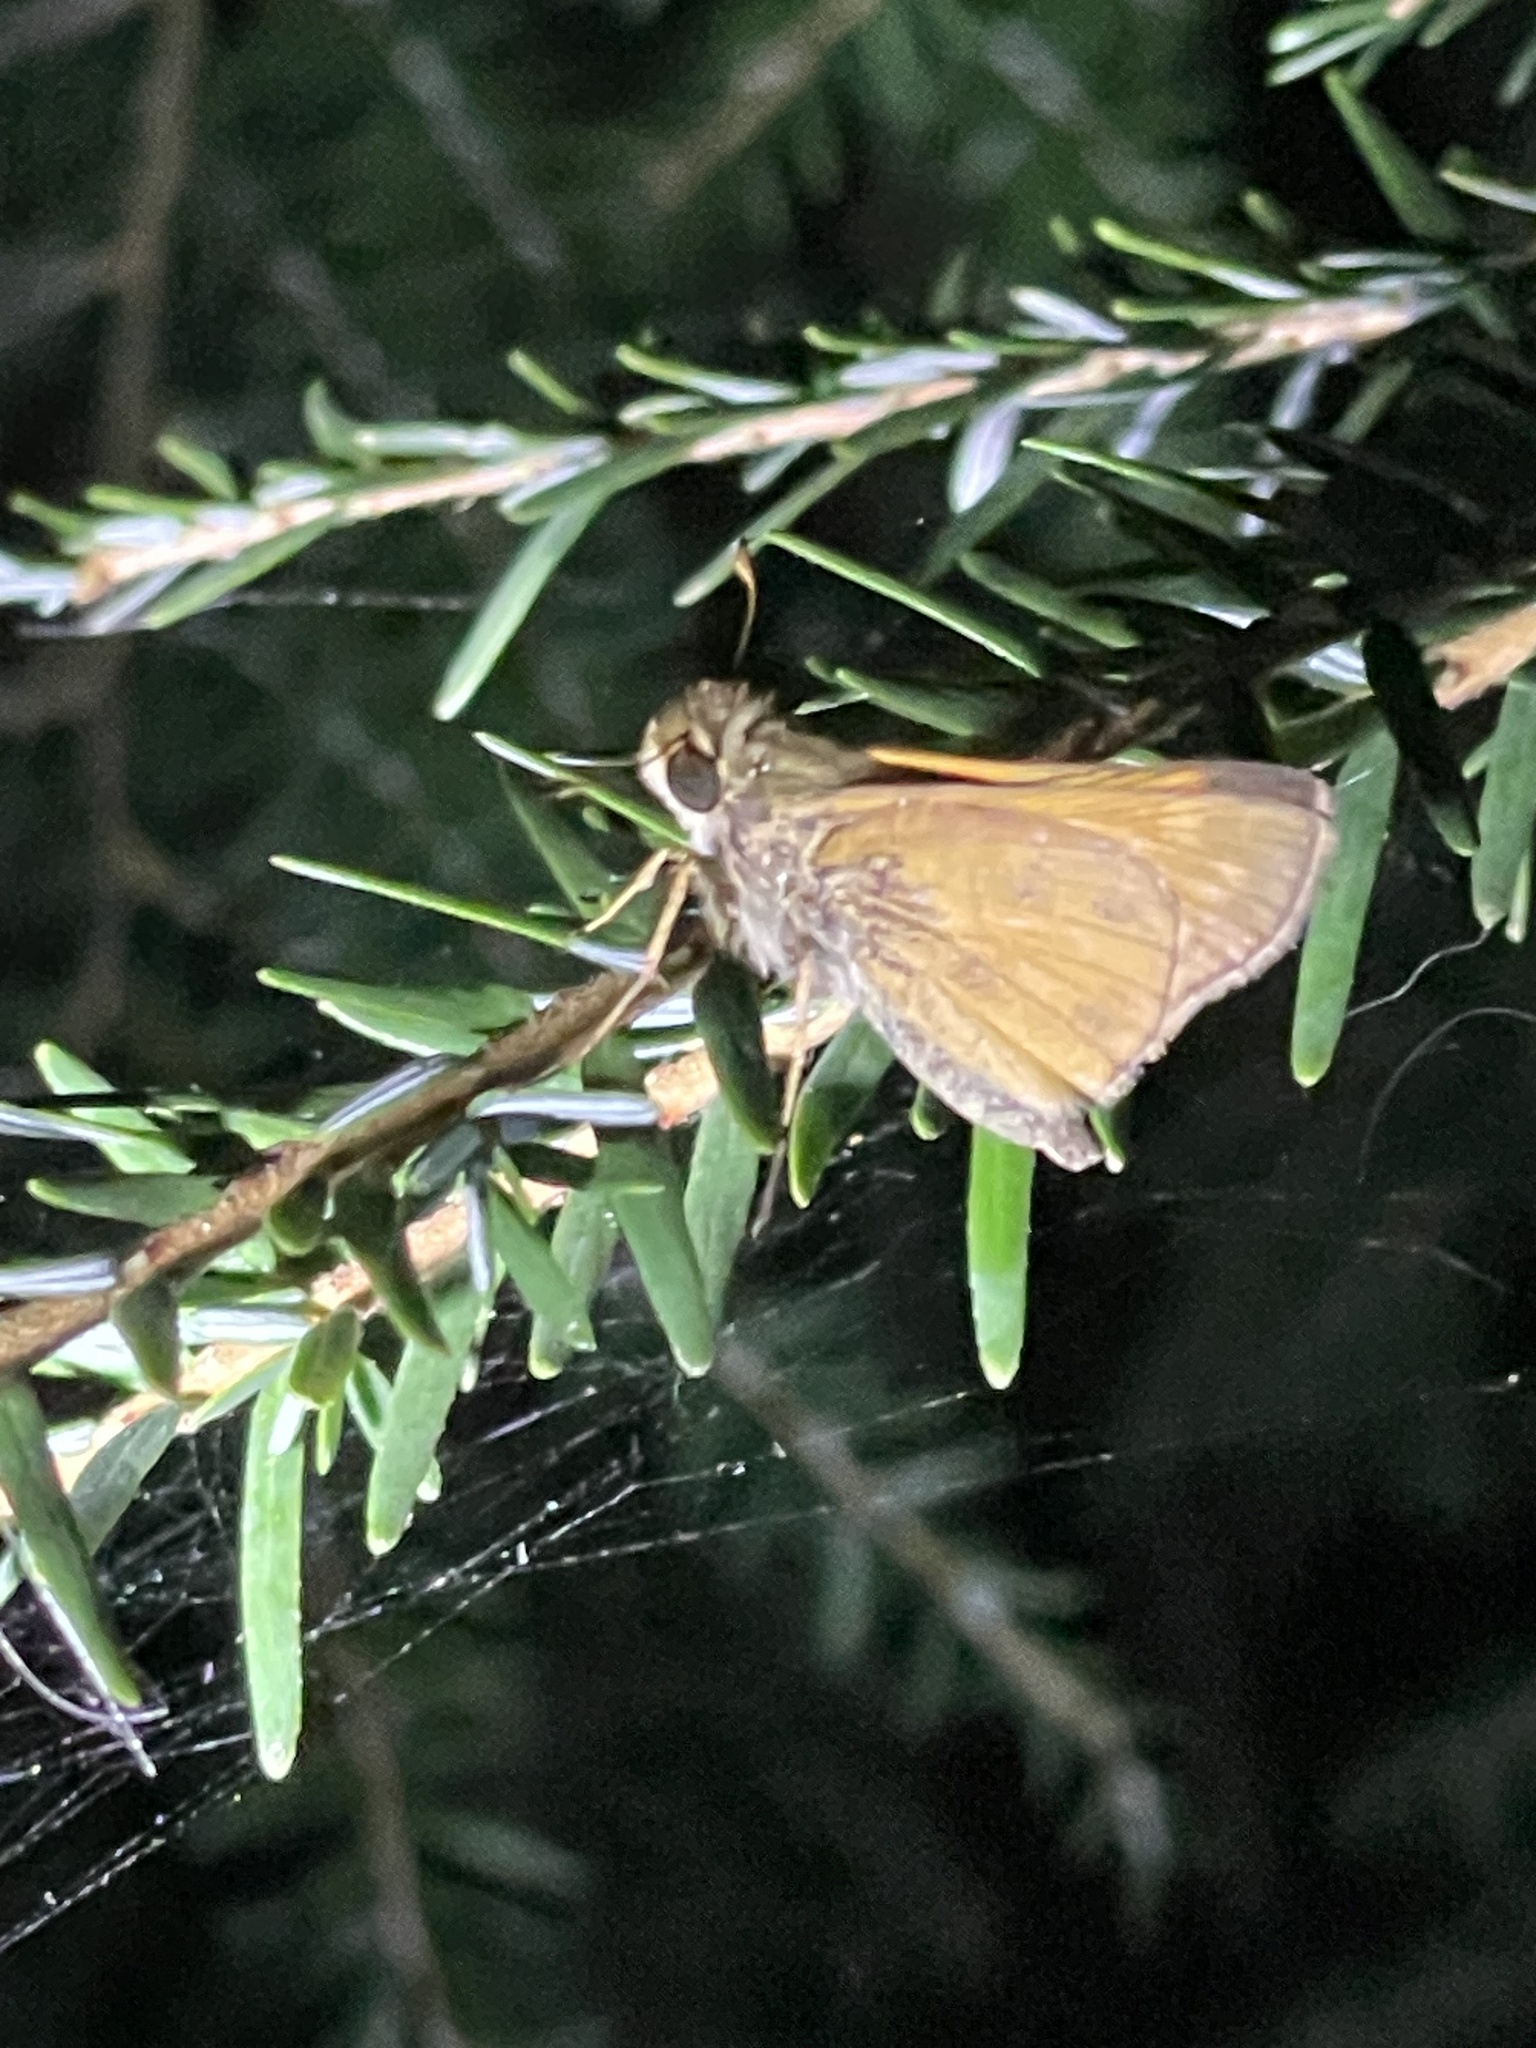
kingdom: Animalia
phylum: Arthropoda
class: Insecta
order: Lepidoptera
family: Hesperiidae
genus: Atalopedes
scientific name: Atalopedes
